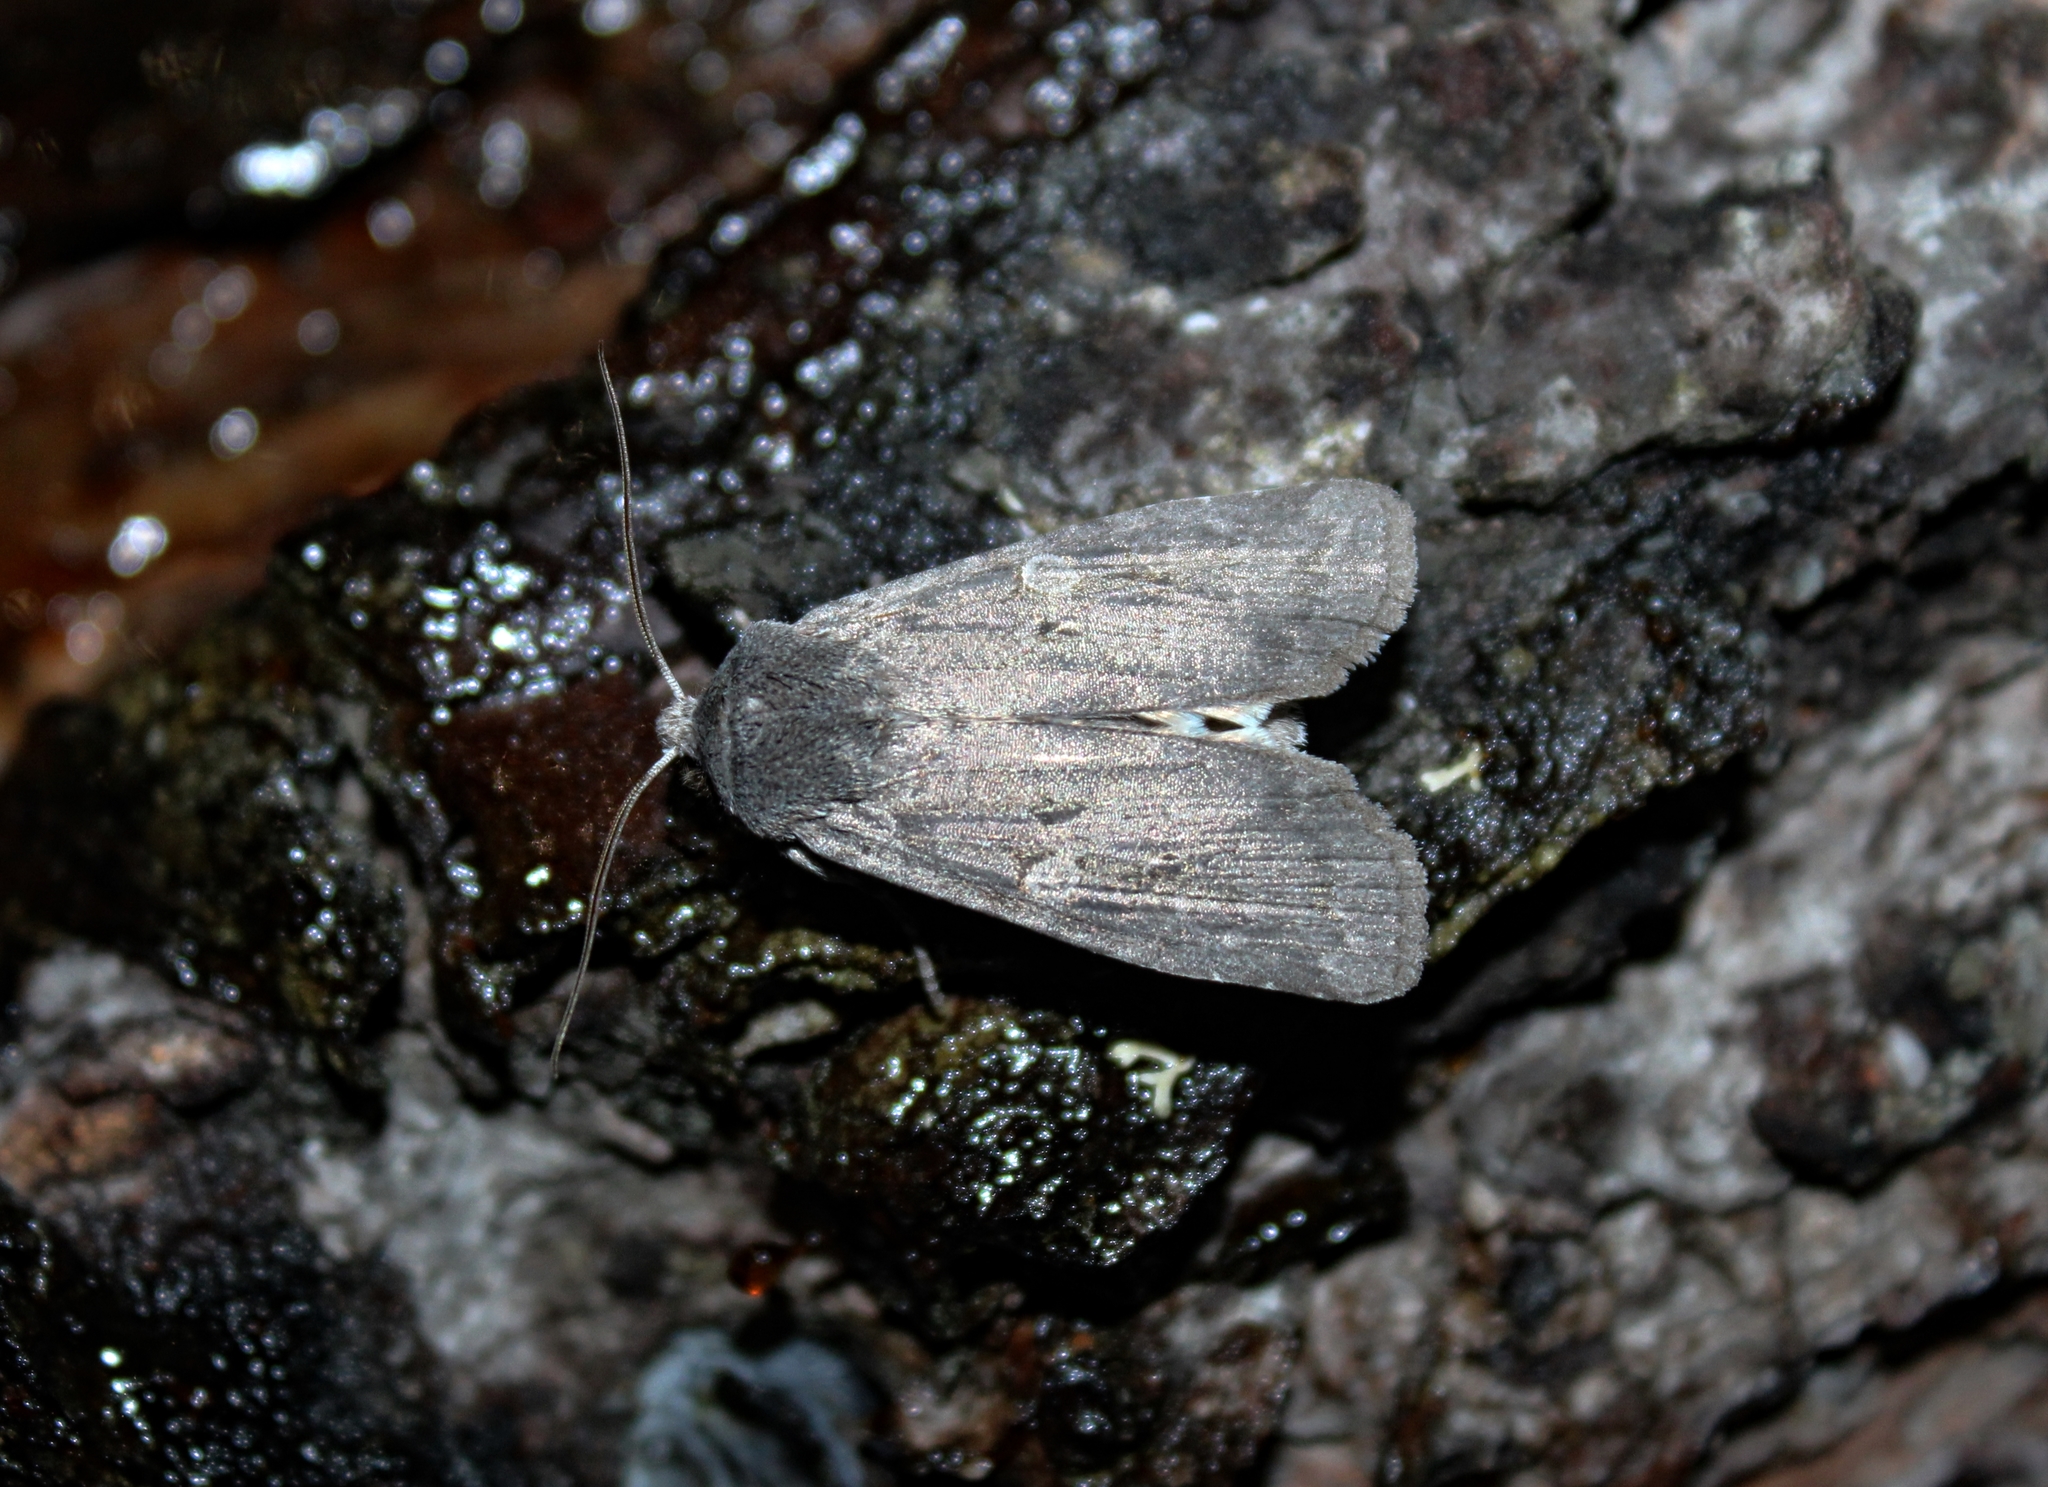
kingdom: Animalia
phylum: Arthropoda
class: Insecta
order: Lepidoptera
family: Noctuidae
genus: Lithophane
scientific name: Lithophane unimoda
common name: Dowdy pinion
